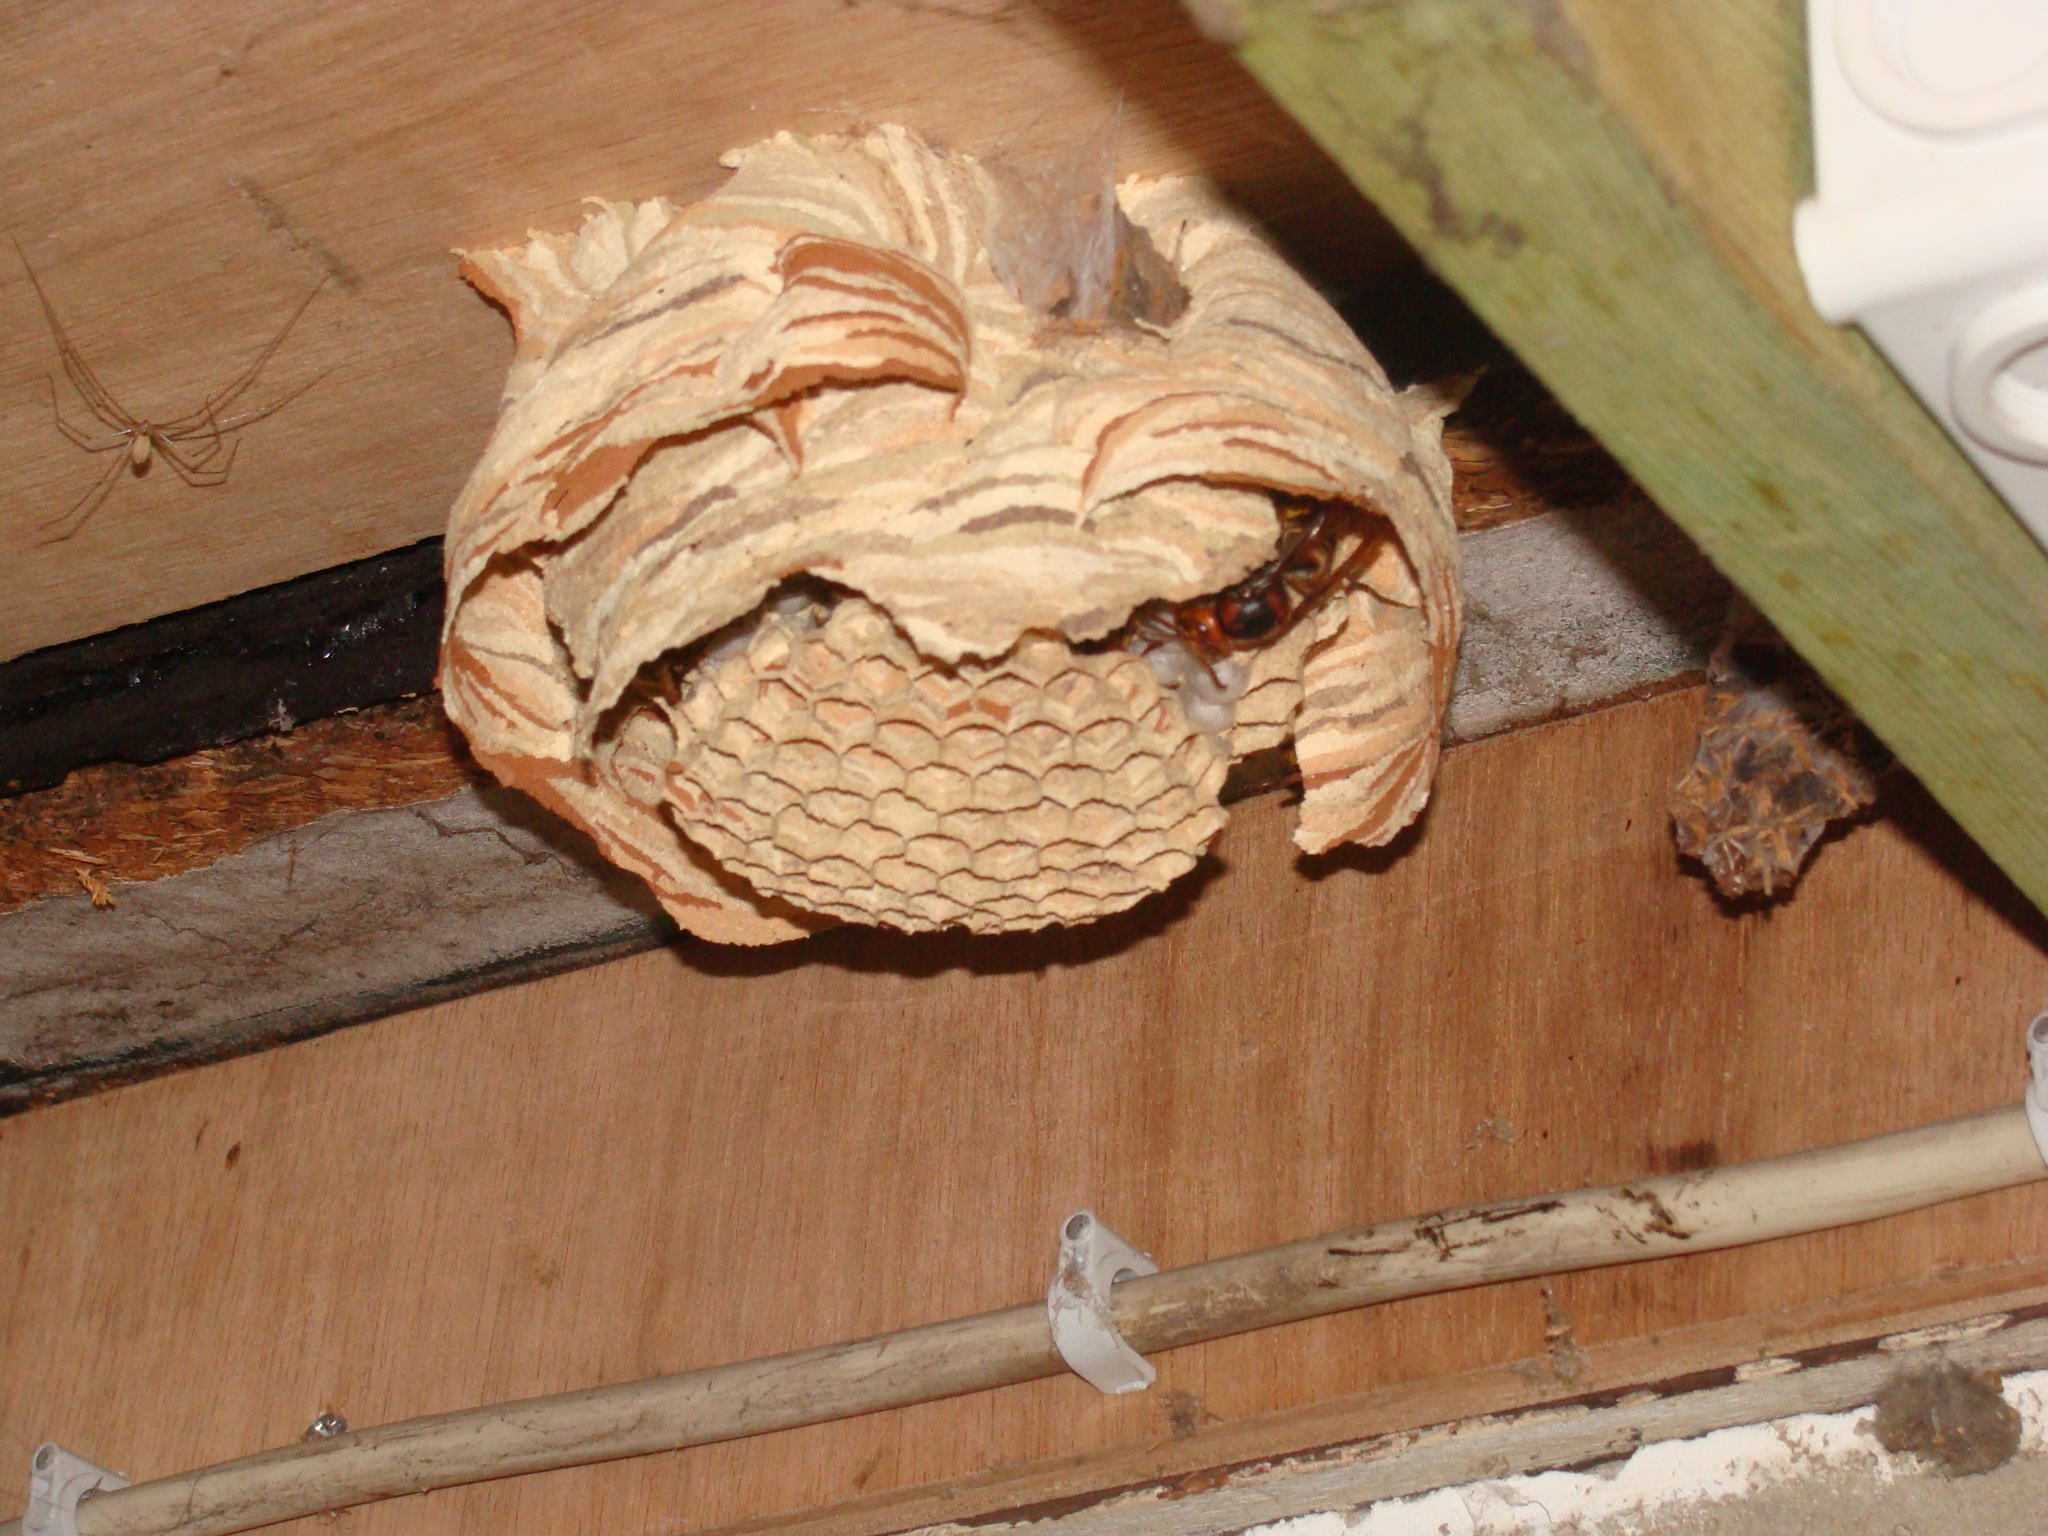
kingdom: Animalia
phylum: Arthropoda
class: Insecta
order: Hymenoptera
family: Vespidae
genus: Vespa
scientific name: Vespa crabro
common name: Hornet
